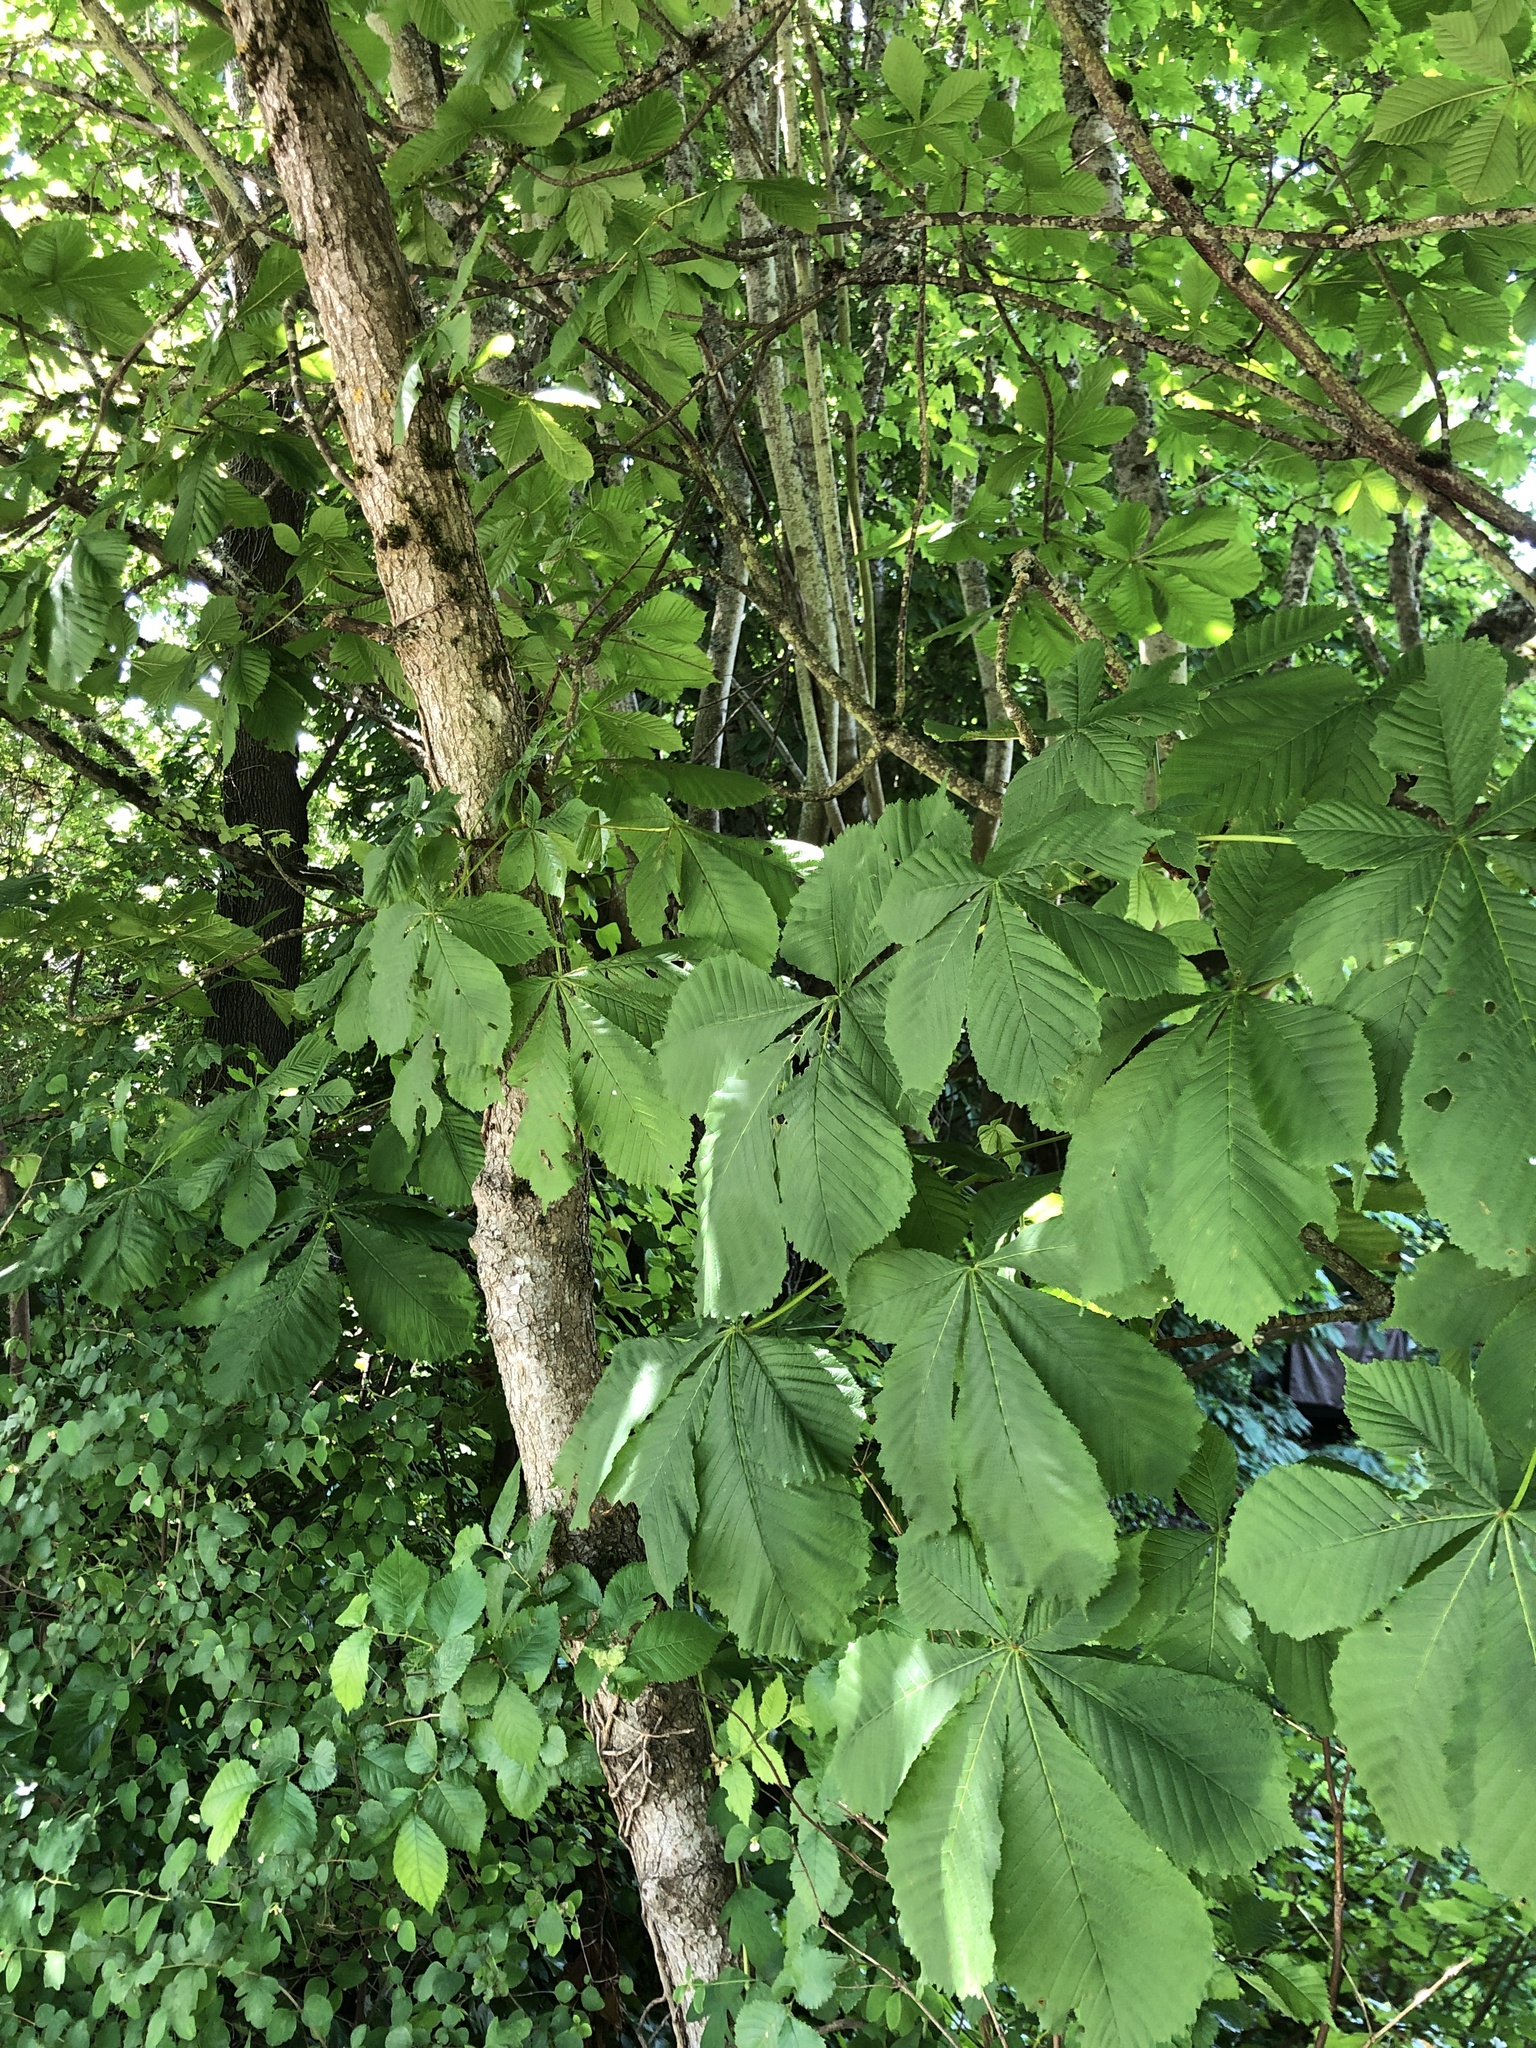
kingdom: Plantae
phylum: Tracheophyta
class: Magnoliopsida
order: Sapindales
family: Sapindaceae
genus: Aesculus
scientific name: Aesculus hippocastanum
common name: Horse-chestnut
